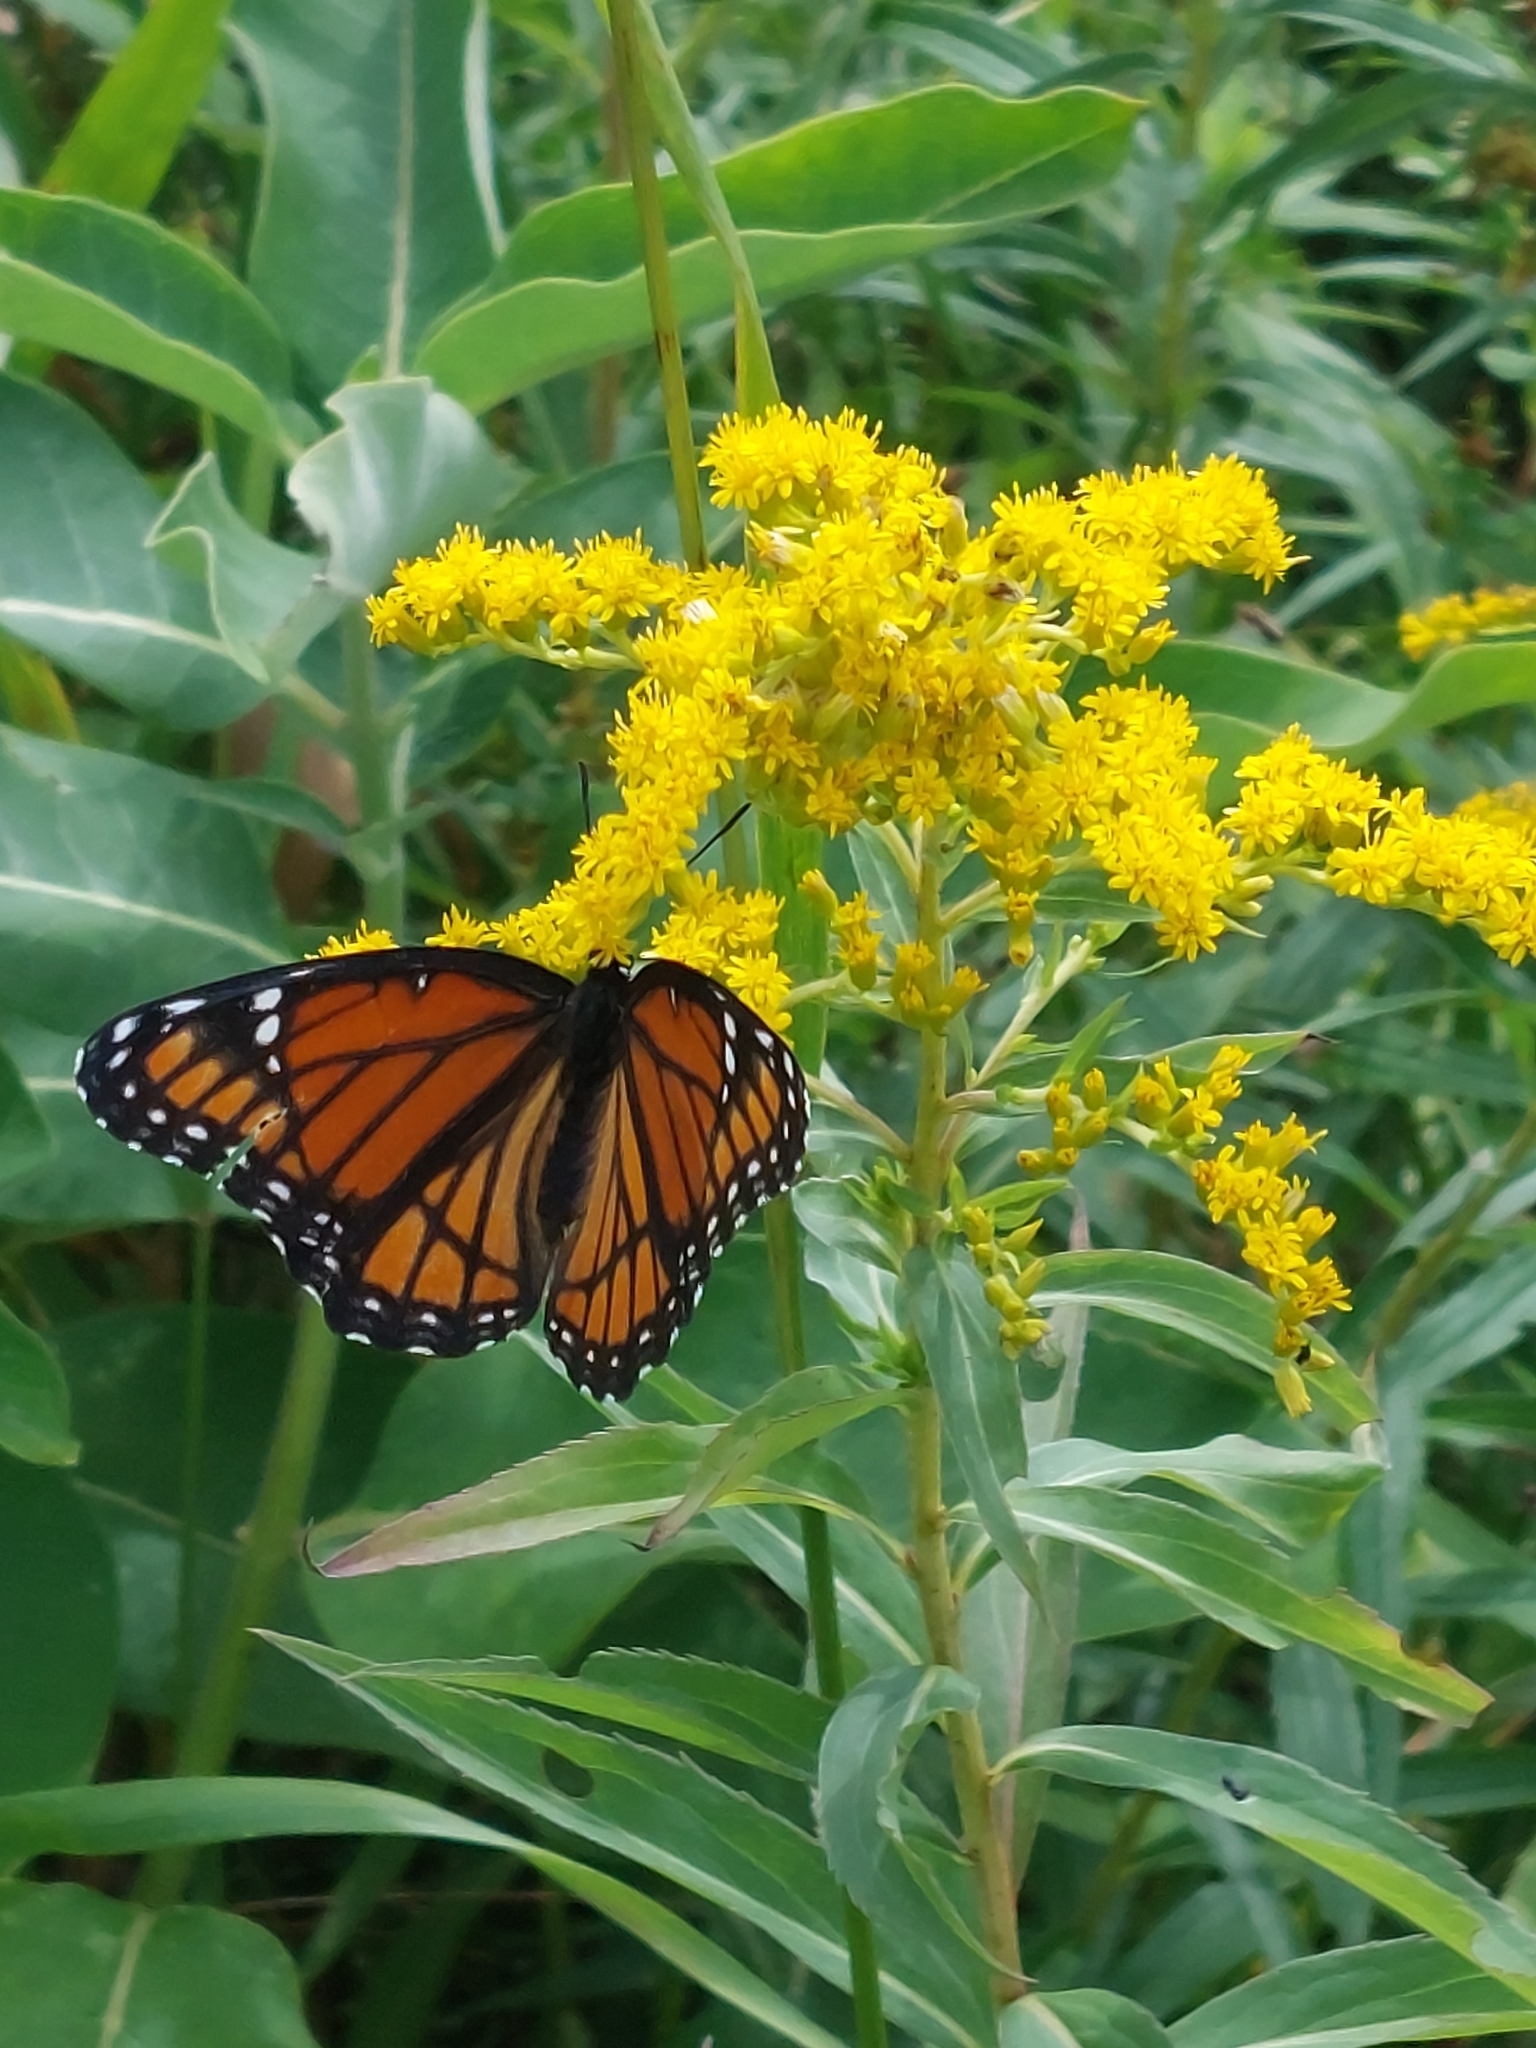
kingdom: Animalia
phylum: Arthropoda
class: Insecta
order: Lepidoptera
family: Nymphalidae
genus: Limenitis
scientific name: Limenitis archippus
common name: Viceroy
